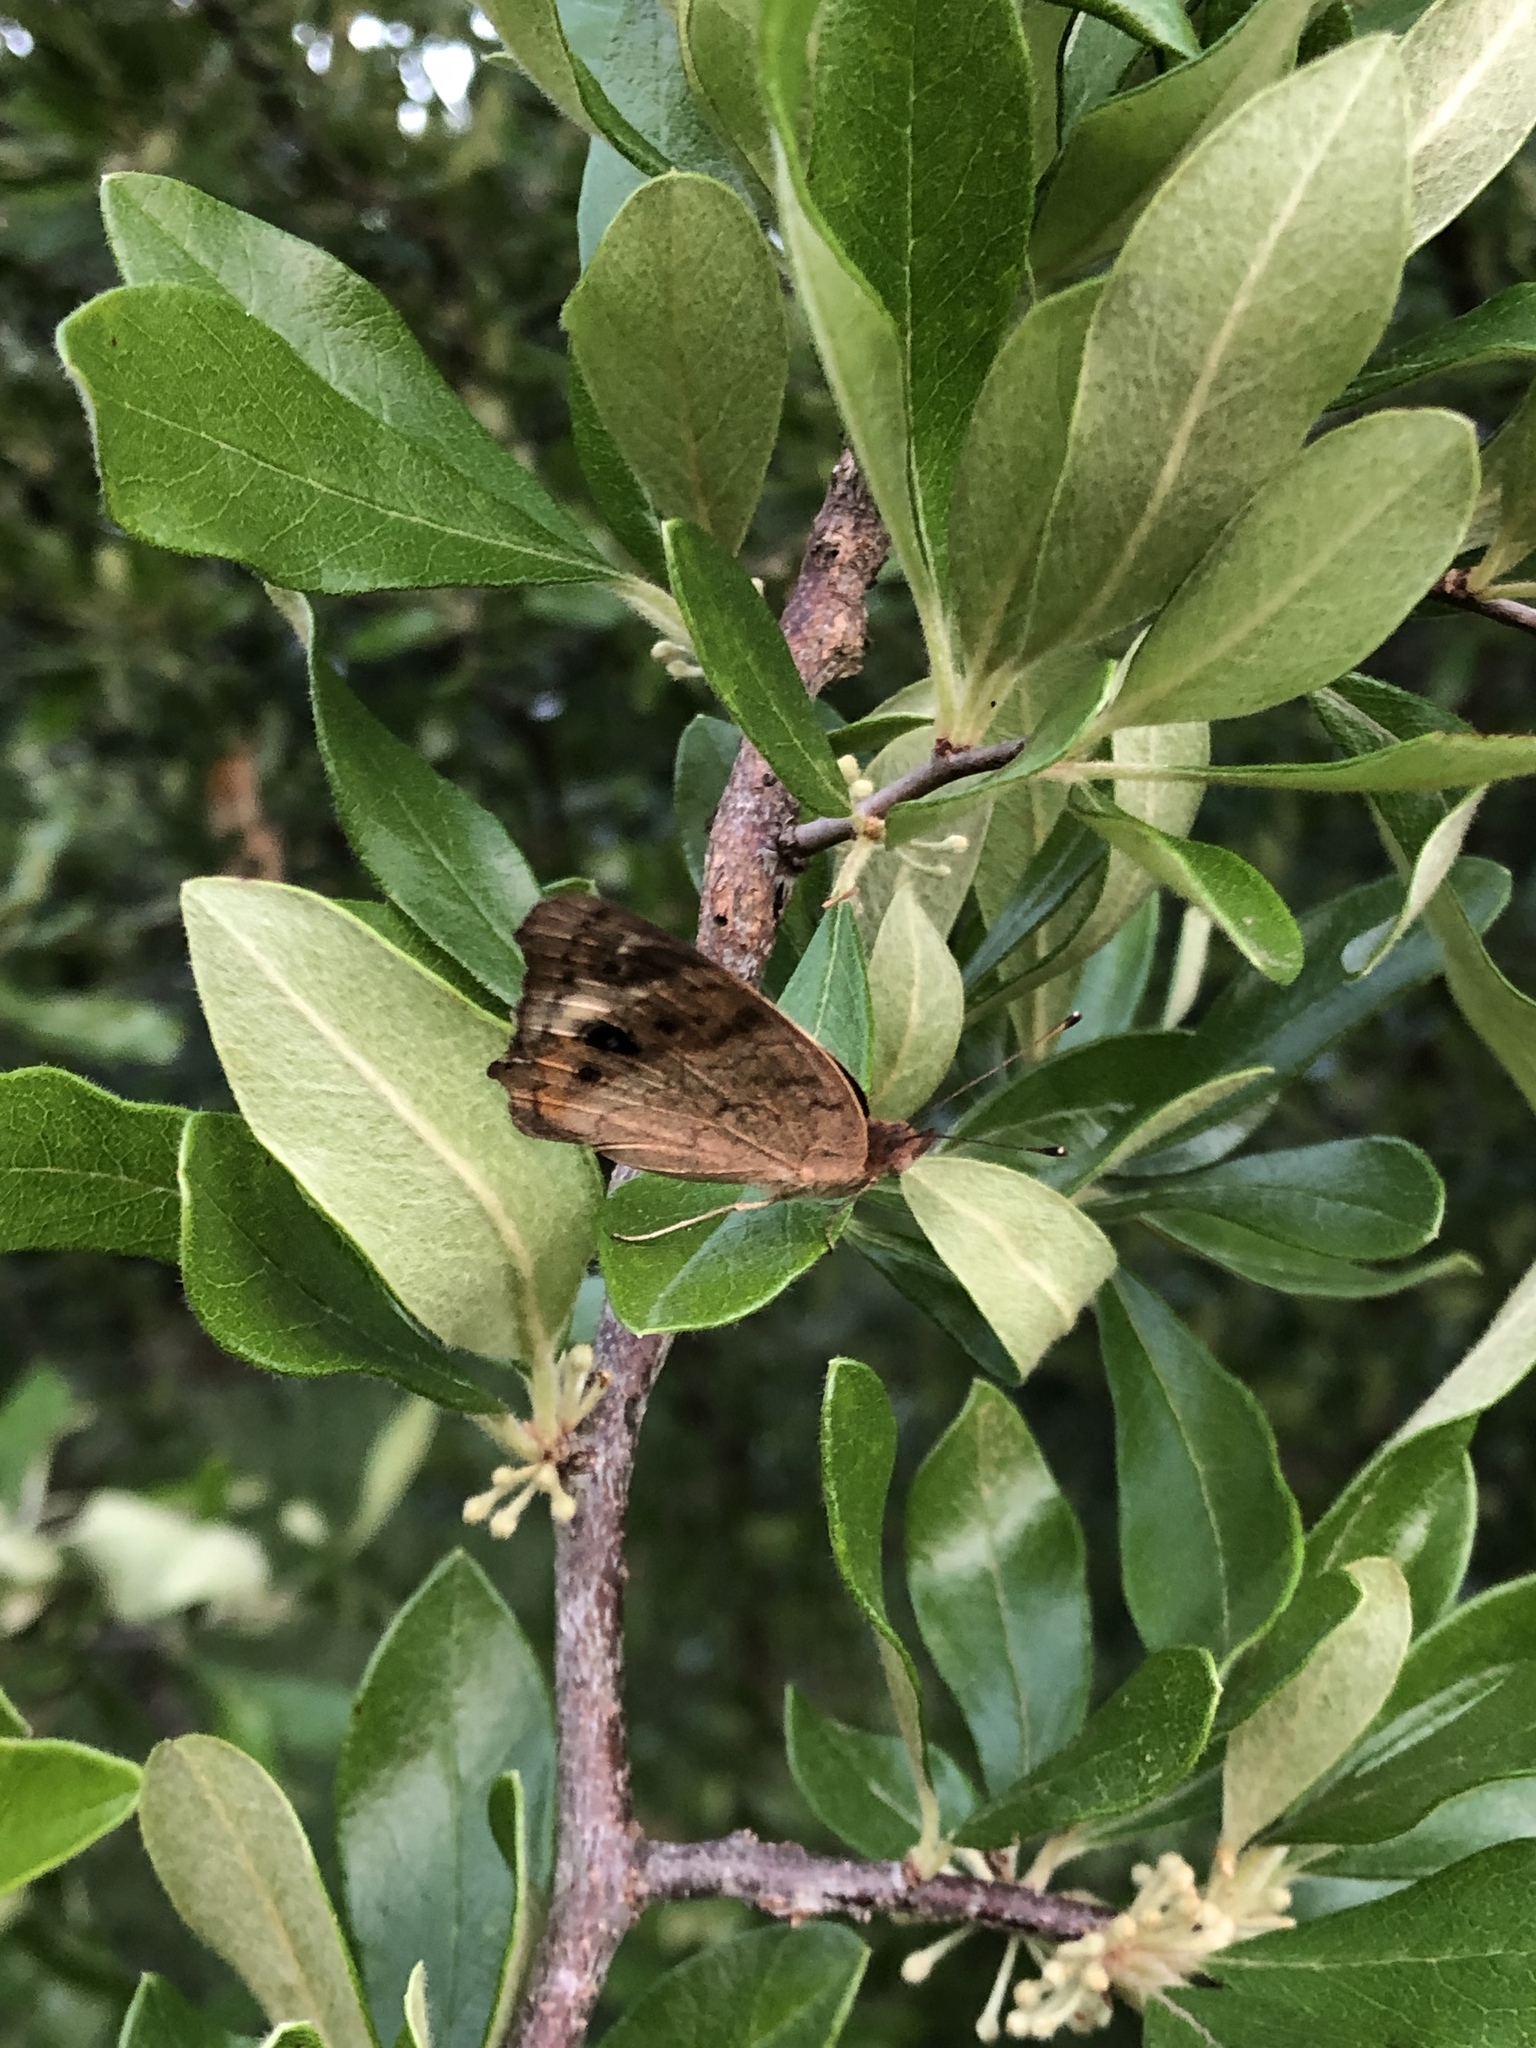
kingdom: Animalia
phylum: Arthropoda
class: Insecta
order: Lepidoptera
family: Nymphalidae
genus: Junonia
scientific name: Junonia coenia
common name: Common buckeye
